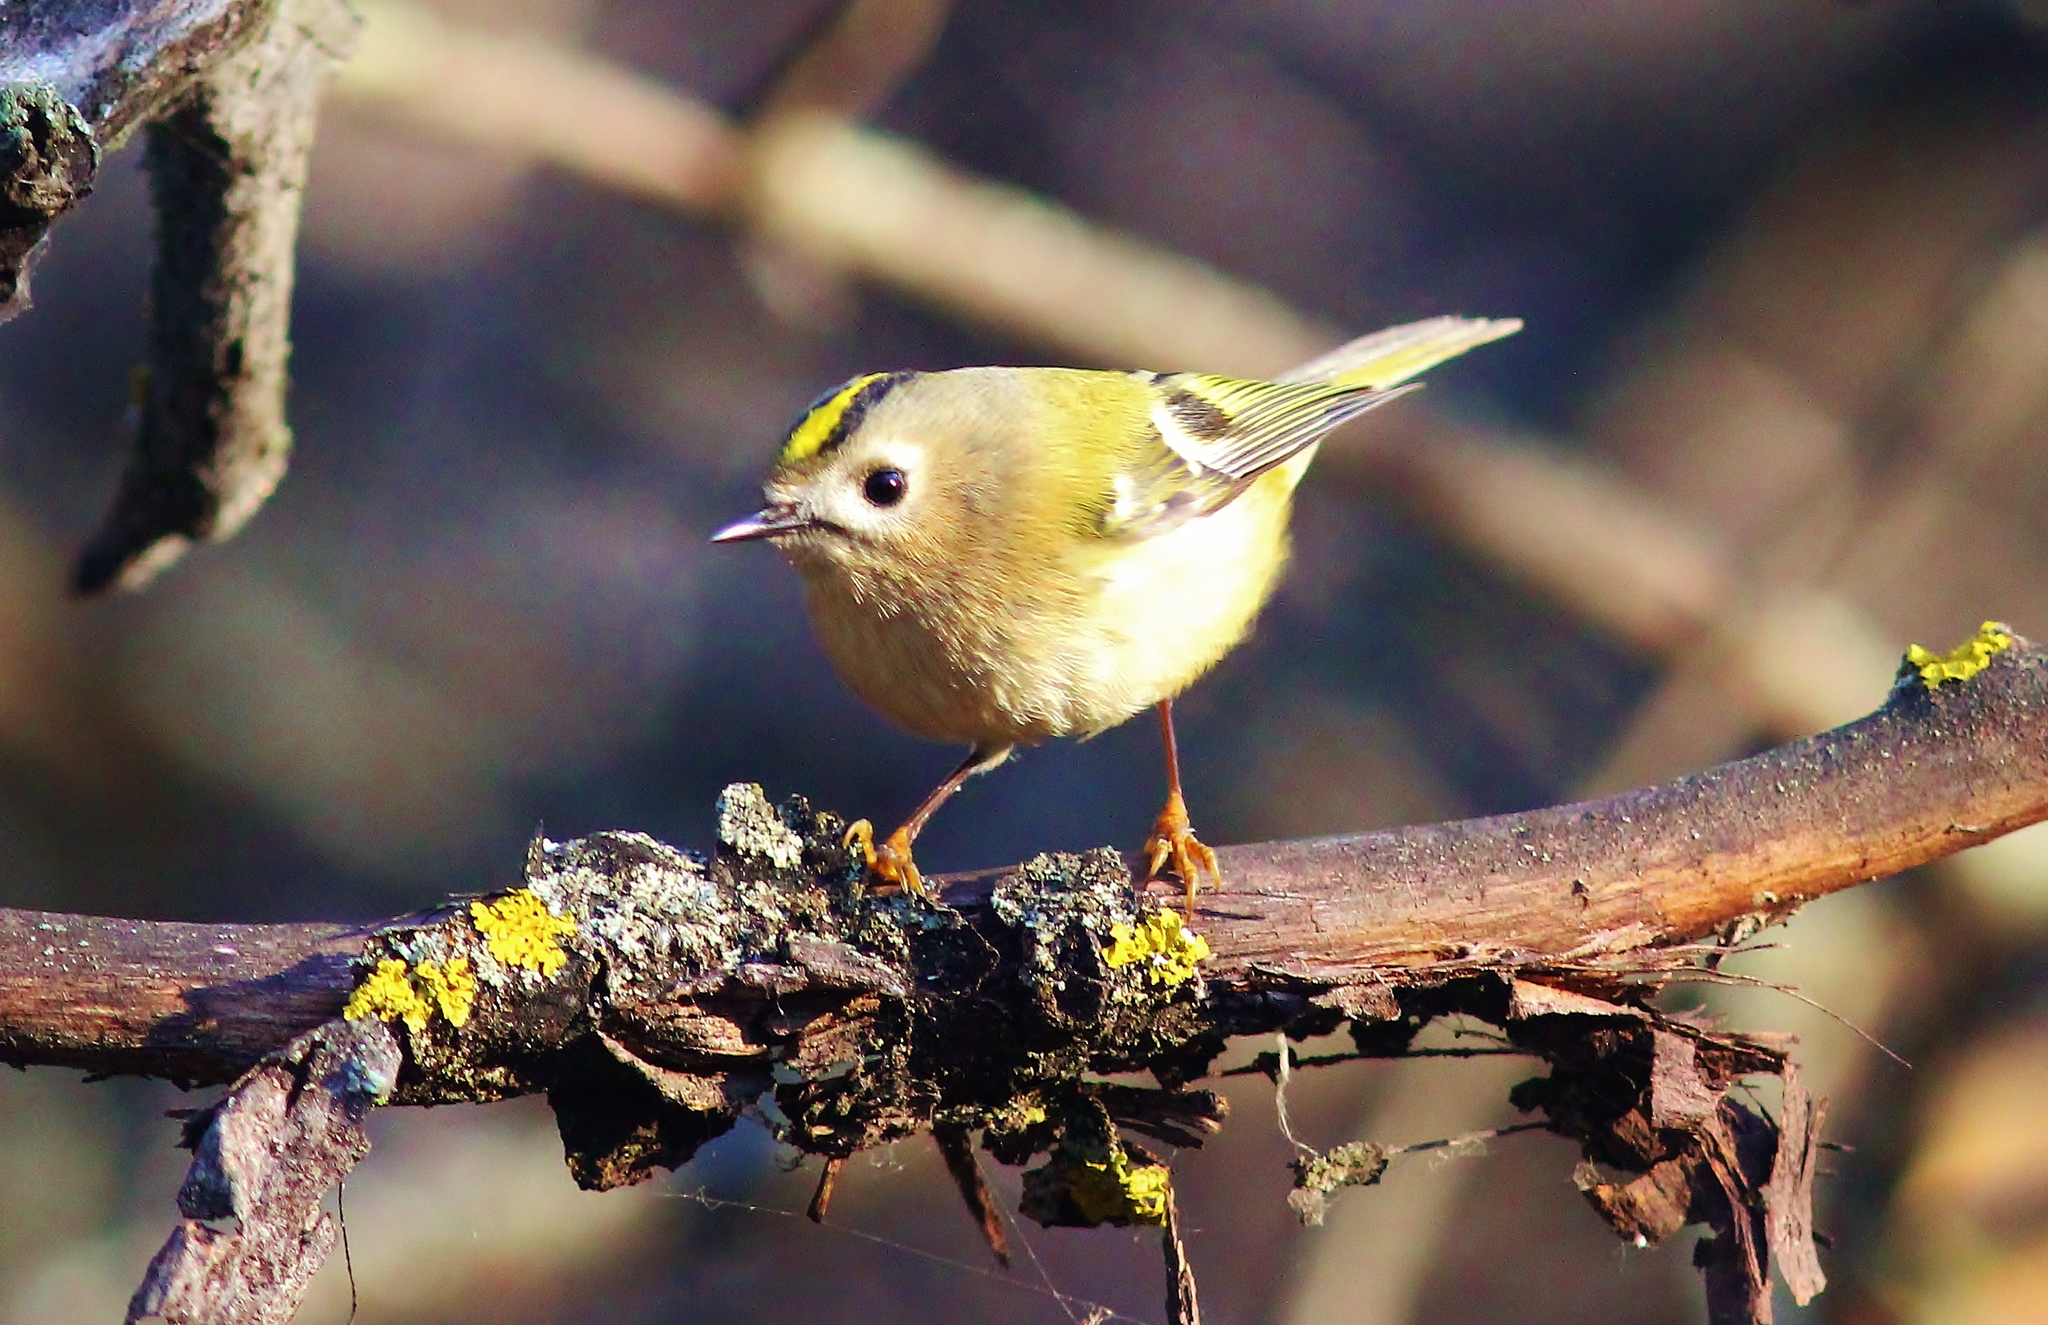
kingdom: Animalia
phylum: Chordata
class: Aves
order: Passeriformes
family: Regulidae
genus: Regulus
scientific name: Regulus regulus
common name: Goldcrest
